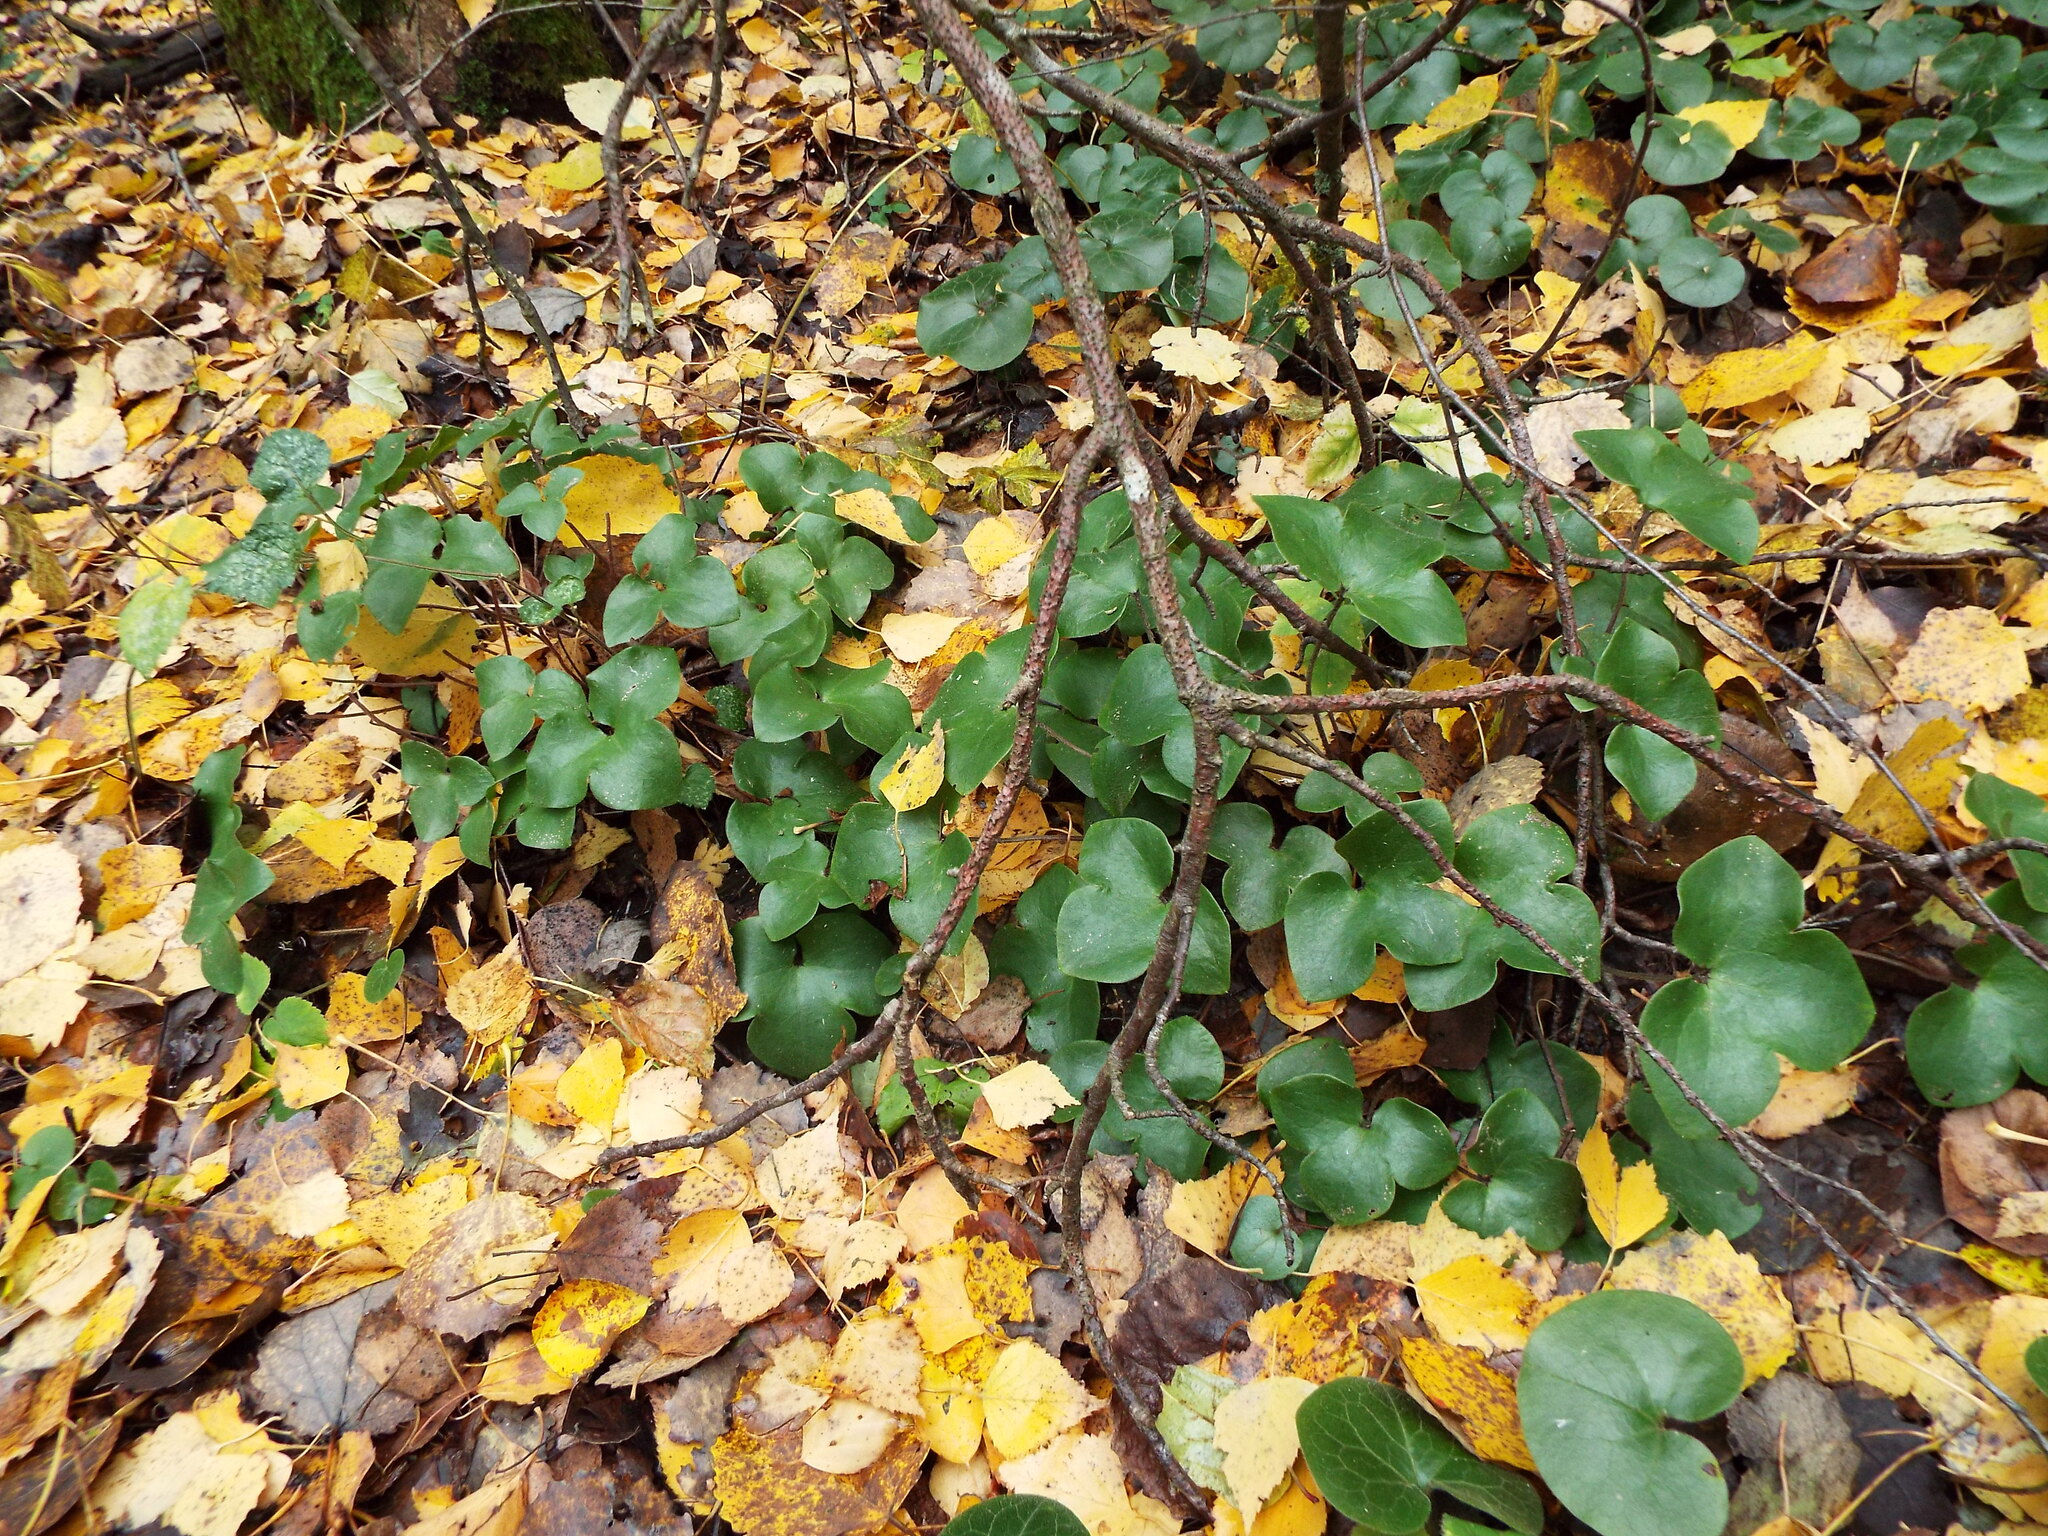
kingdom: Plantae
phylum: Tracheophyta
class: Magnoliopsida
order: Ranunculales
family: Ranunculaceae
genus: Hepatica
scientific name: Hepatica nobilis
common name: Liverleaf
